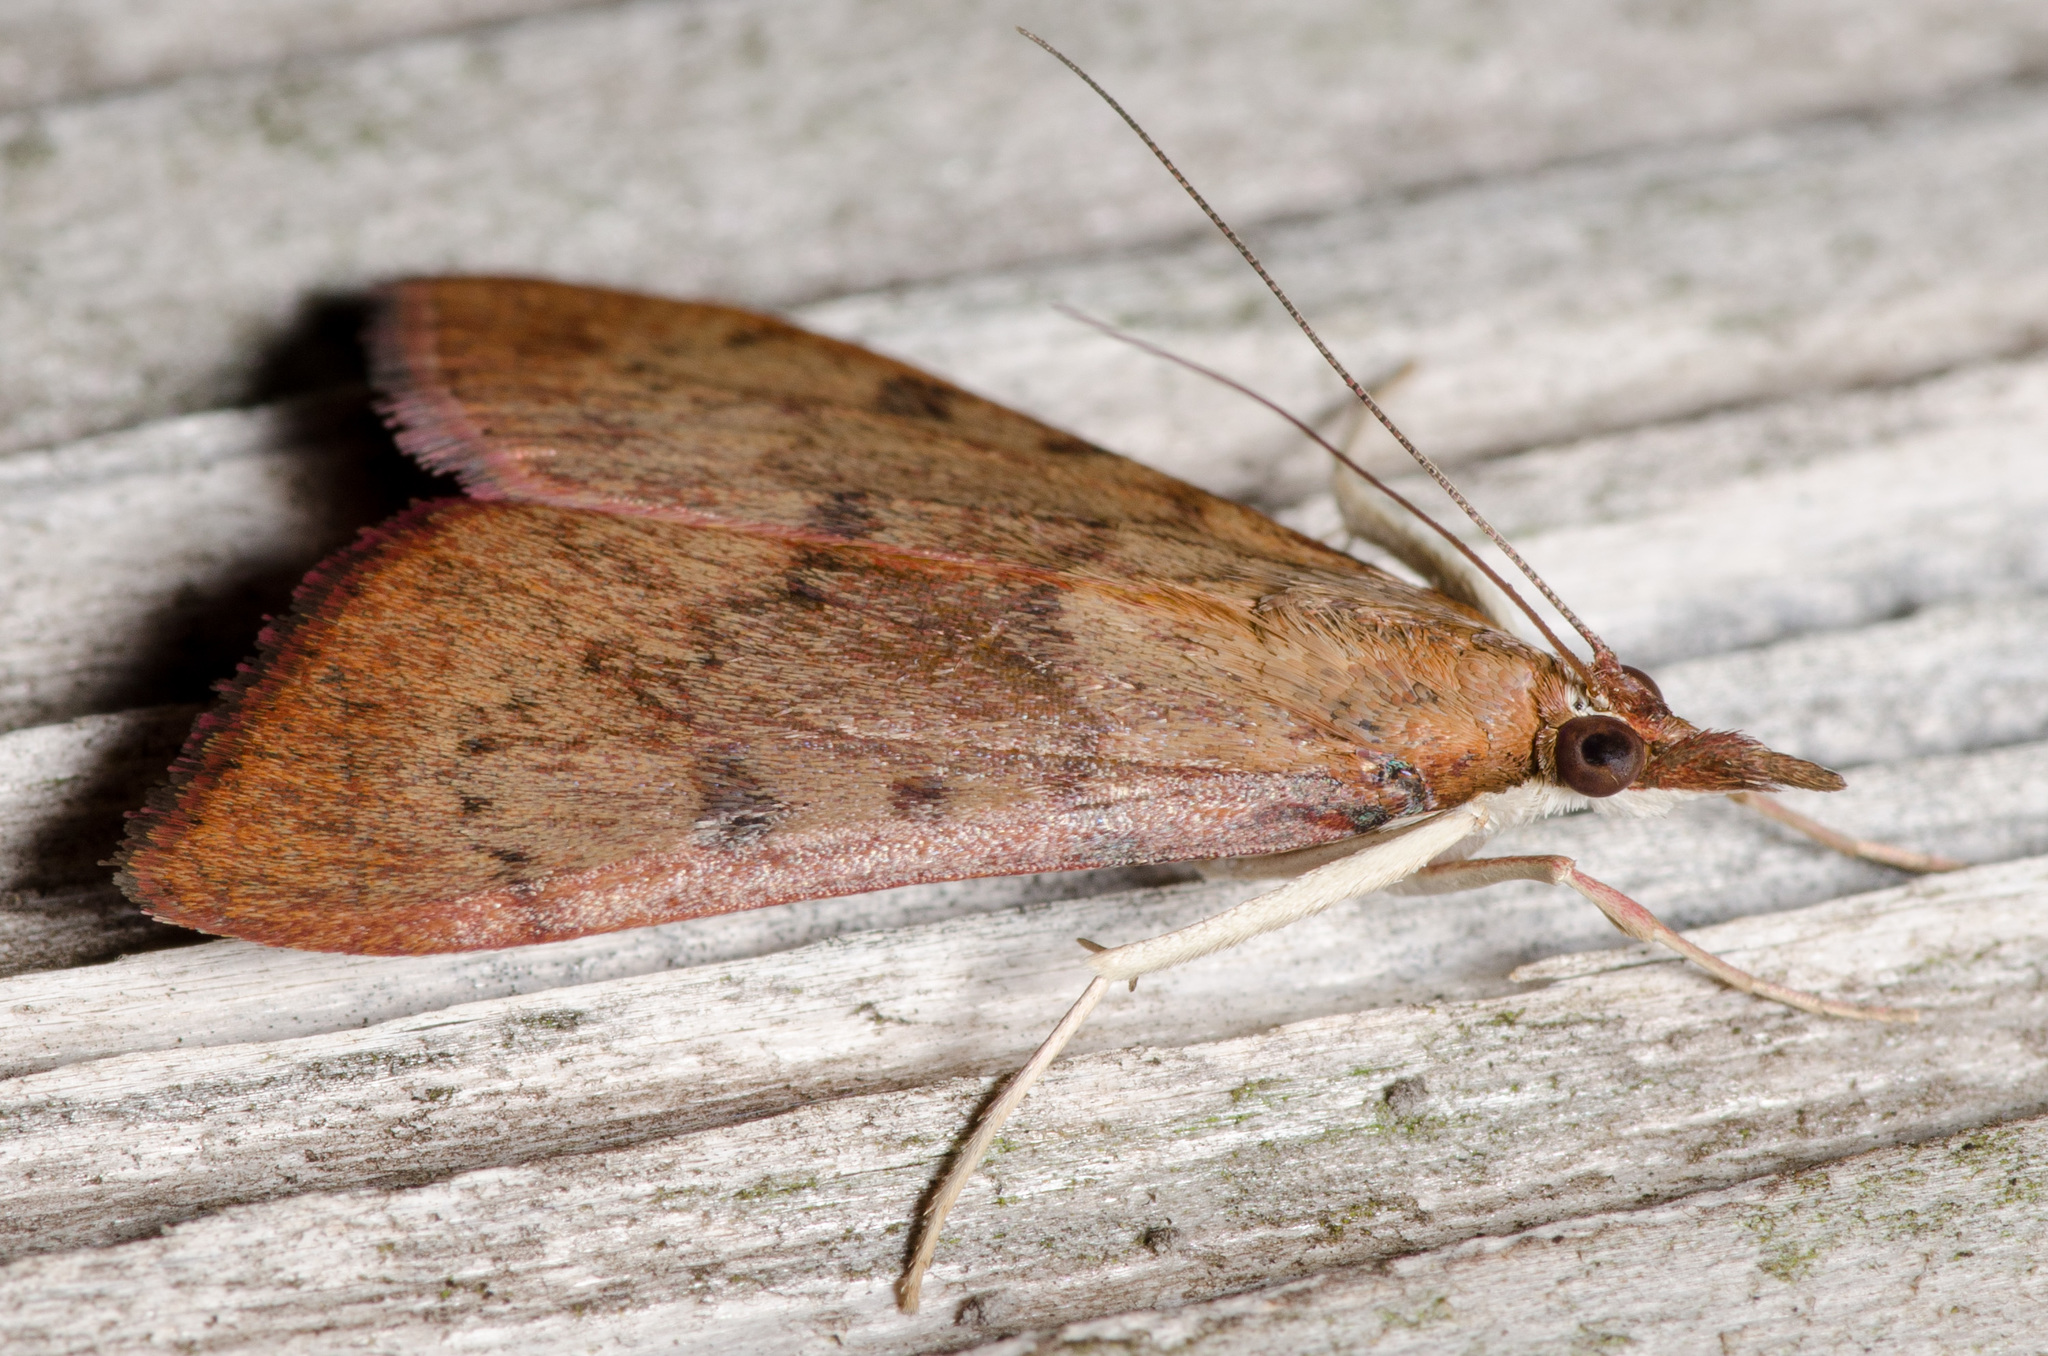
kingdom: Animalia
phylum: Arthropoda
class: Insecta
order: Lepidoptera
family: Crambidae
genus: Uresiphita
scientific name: Uresiphita reversalis
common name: Genista broom moth
